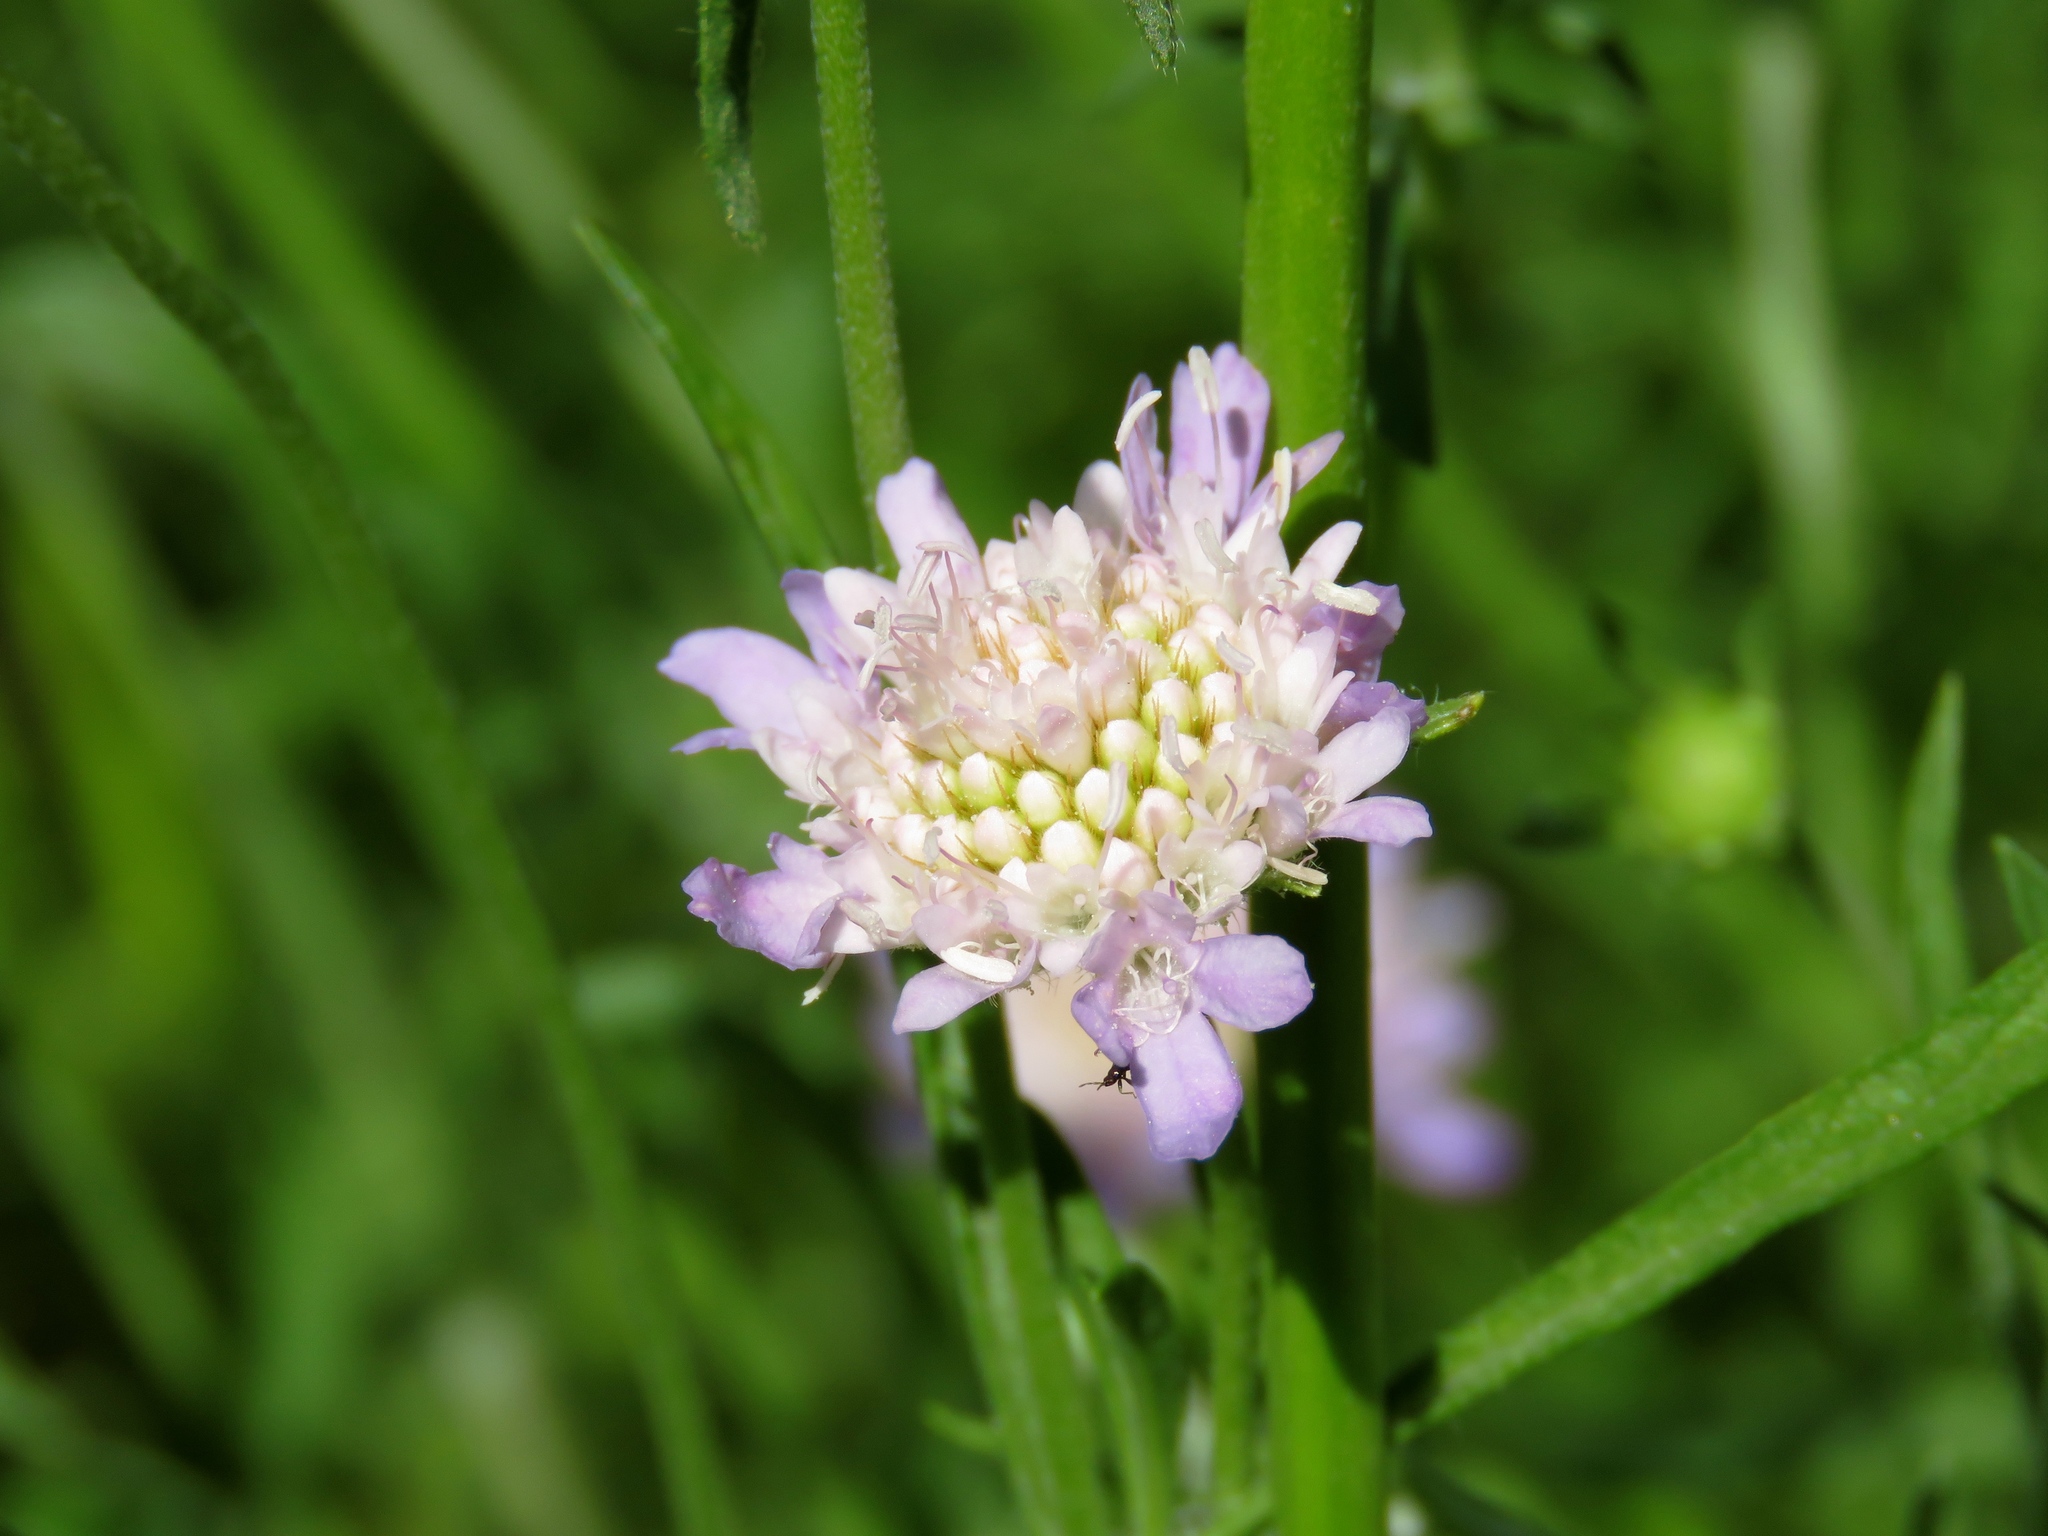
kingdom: Plantae
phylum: Tracheophyta
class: Magnoliopsida
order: Dipsacales
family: Caprifoliaceae
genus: Sixalix
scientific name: Sixalix atropurpurea
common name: Sweet scabious
